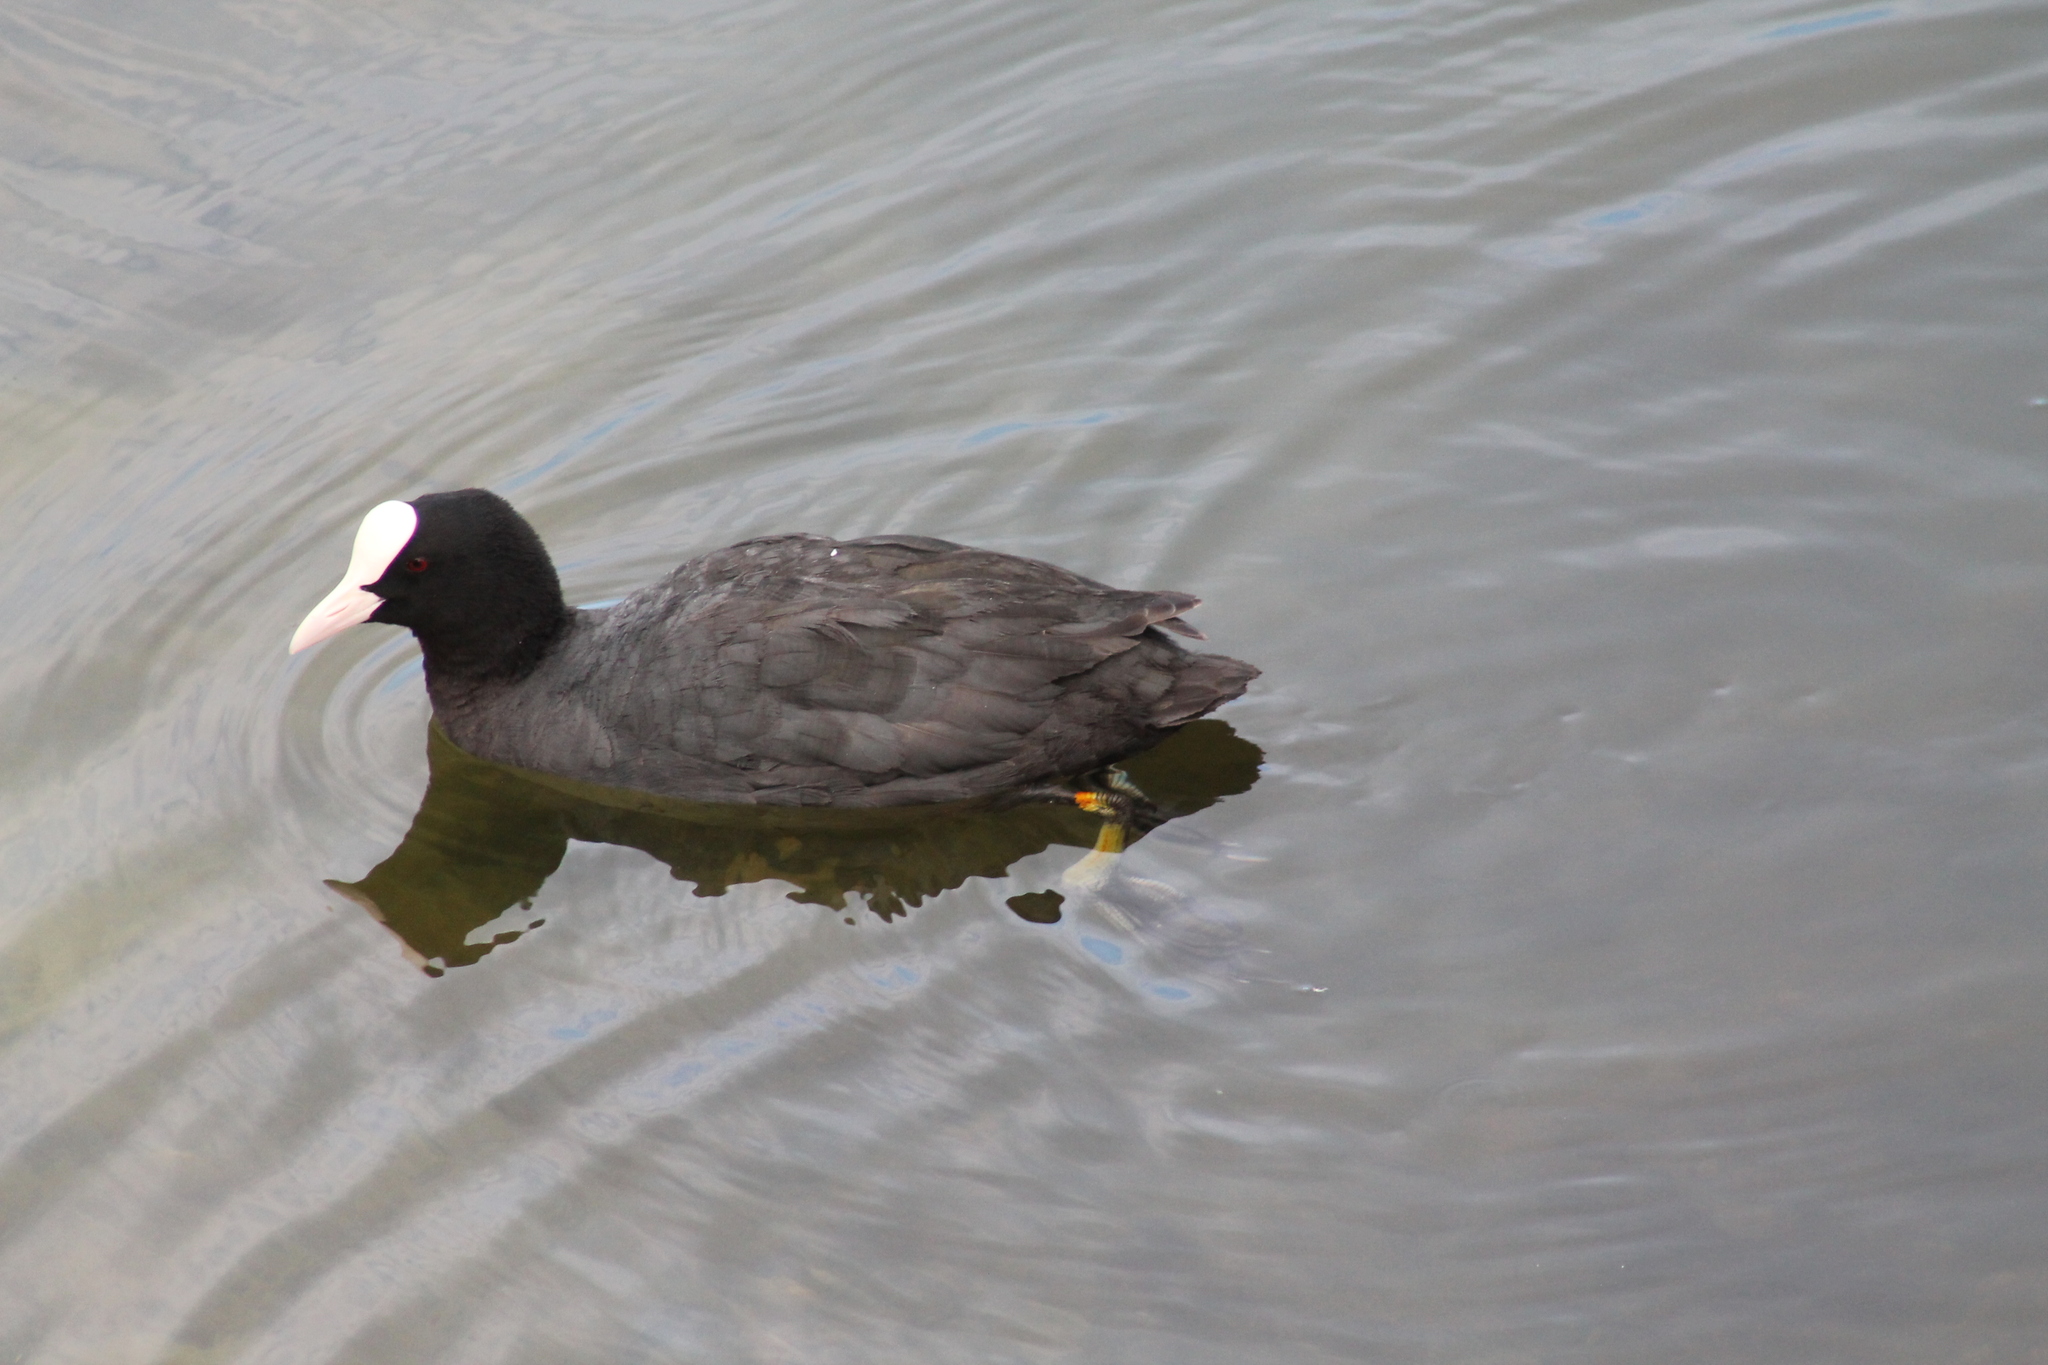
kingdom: Animalia
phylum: Chordata
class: Aves
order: Gruiformes
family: Rallidae
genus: Fulica
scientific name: Fulica atra
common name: Eurasian coot
